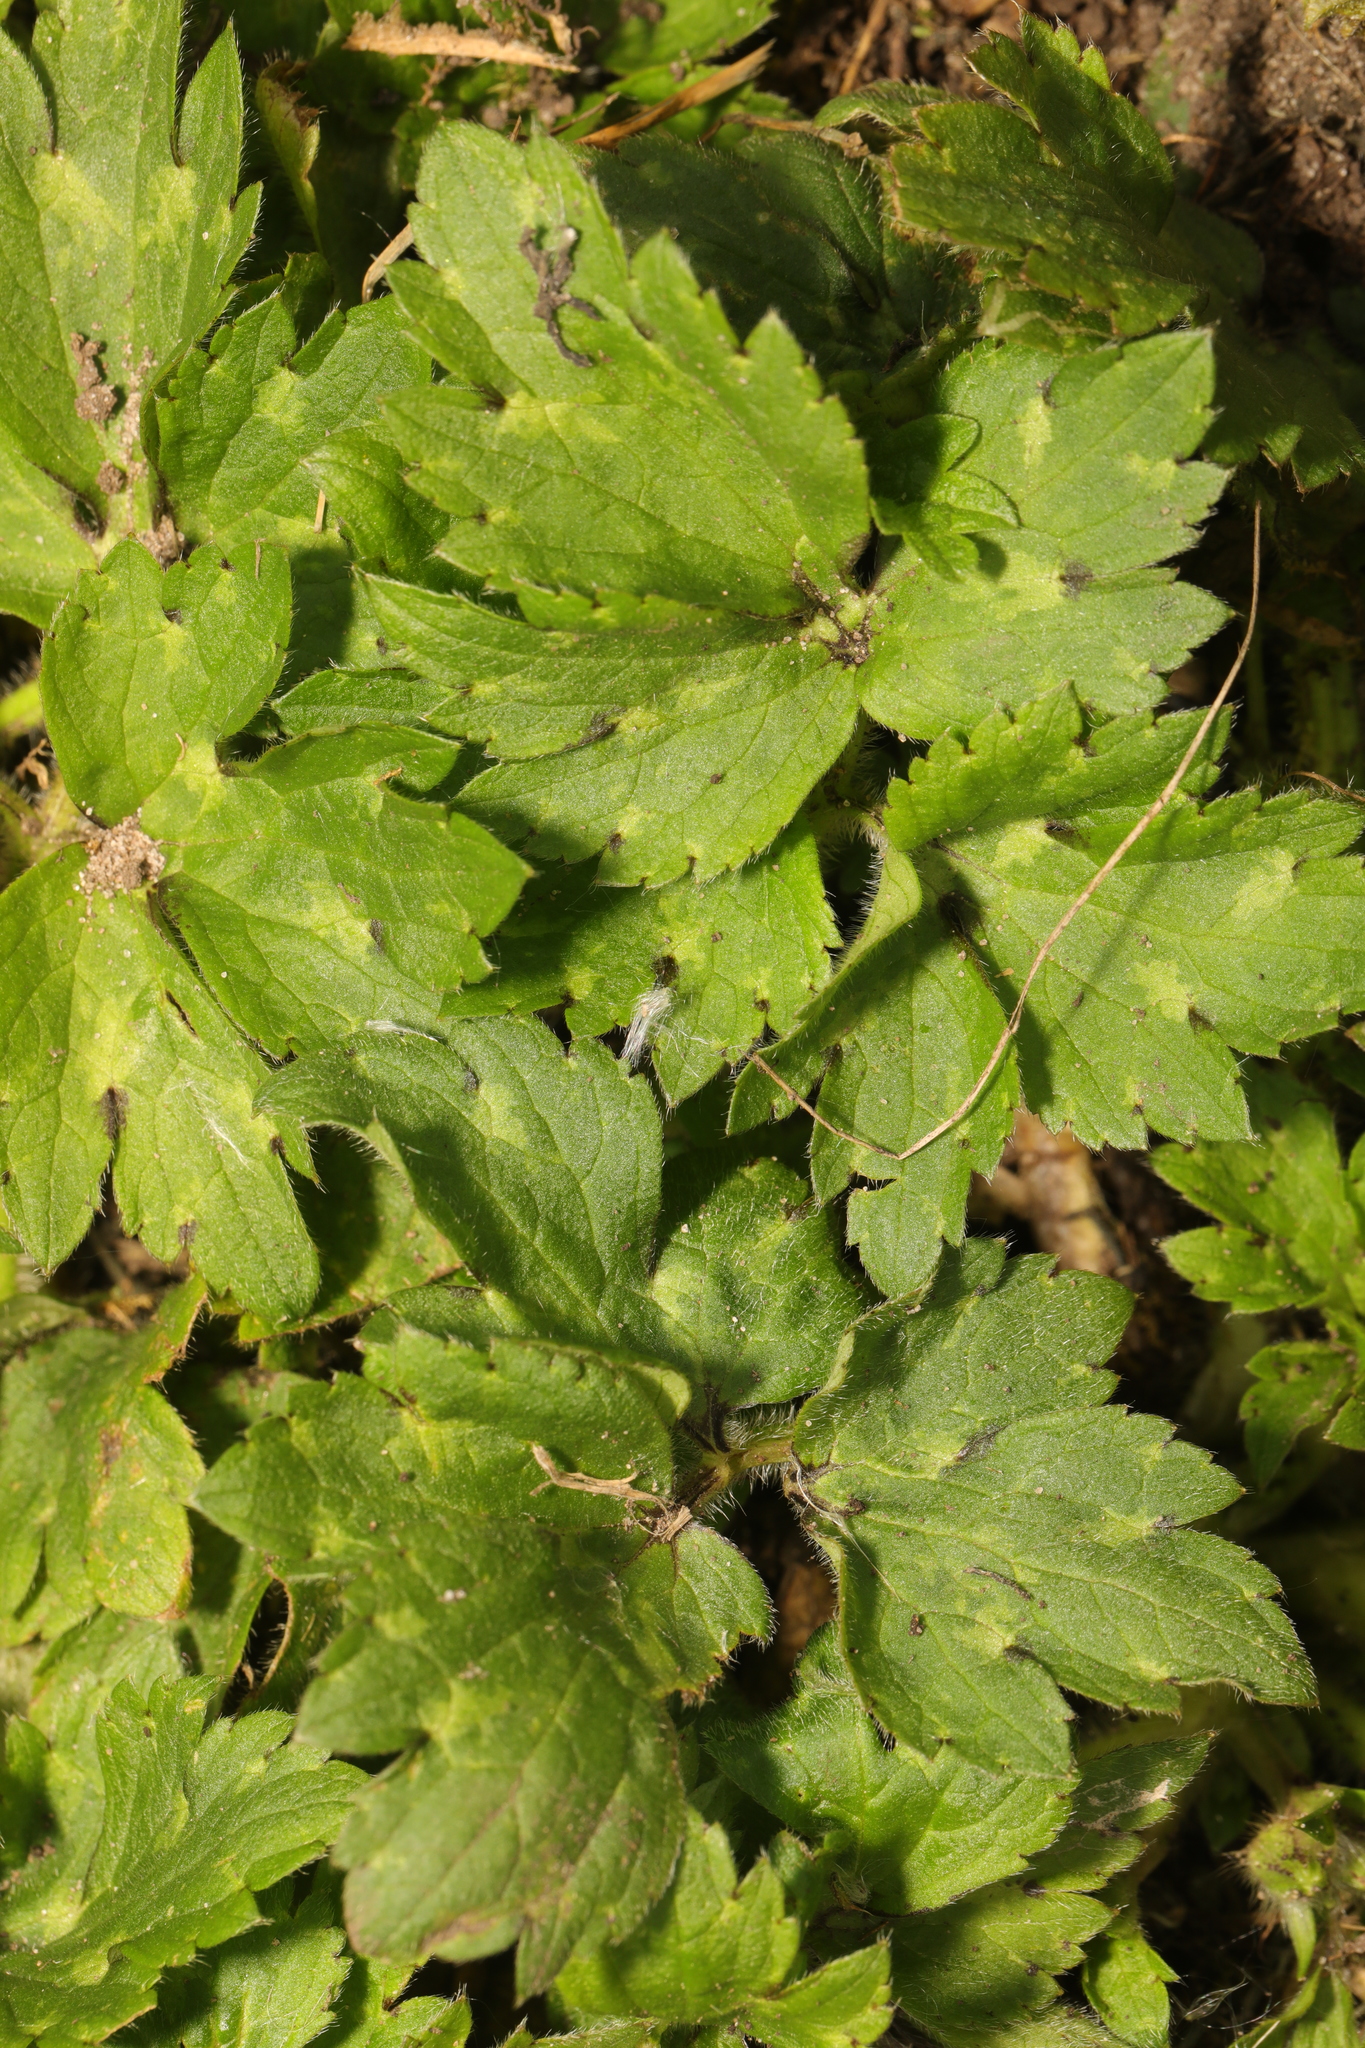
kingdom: Plantae
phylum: Tracheophyta
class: Magnoliopsida
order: Ranunculales
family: Ranunculaceae
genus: Ranunculus
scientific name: Ranunculus repens
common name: Creeping buttercup
